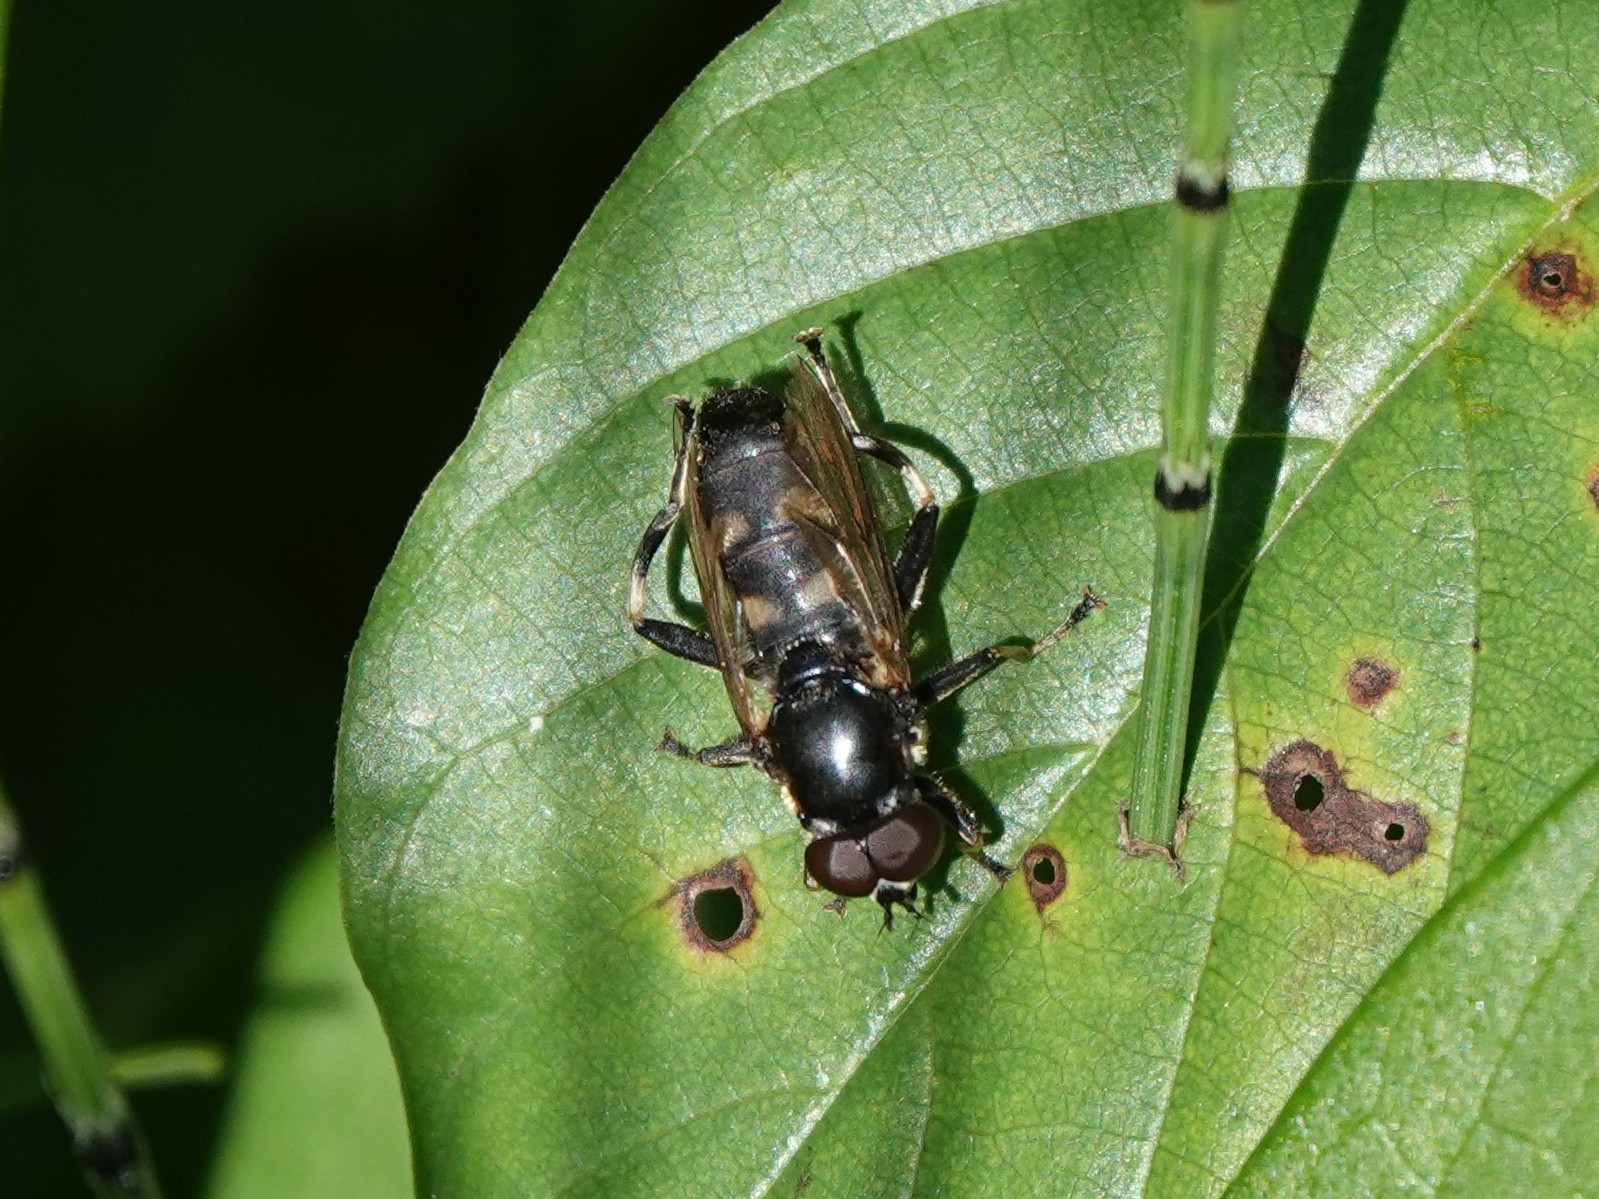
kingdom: Animalia
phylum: Arthropoda
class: Insecta
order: Diptera
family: Syrphidae
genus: Syritta
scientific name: Syritta pipiens
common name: Hover fly
